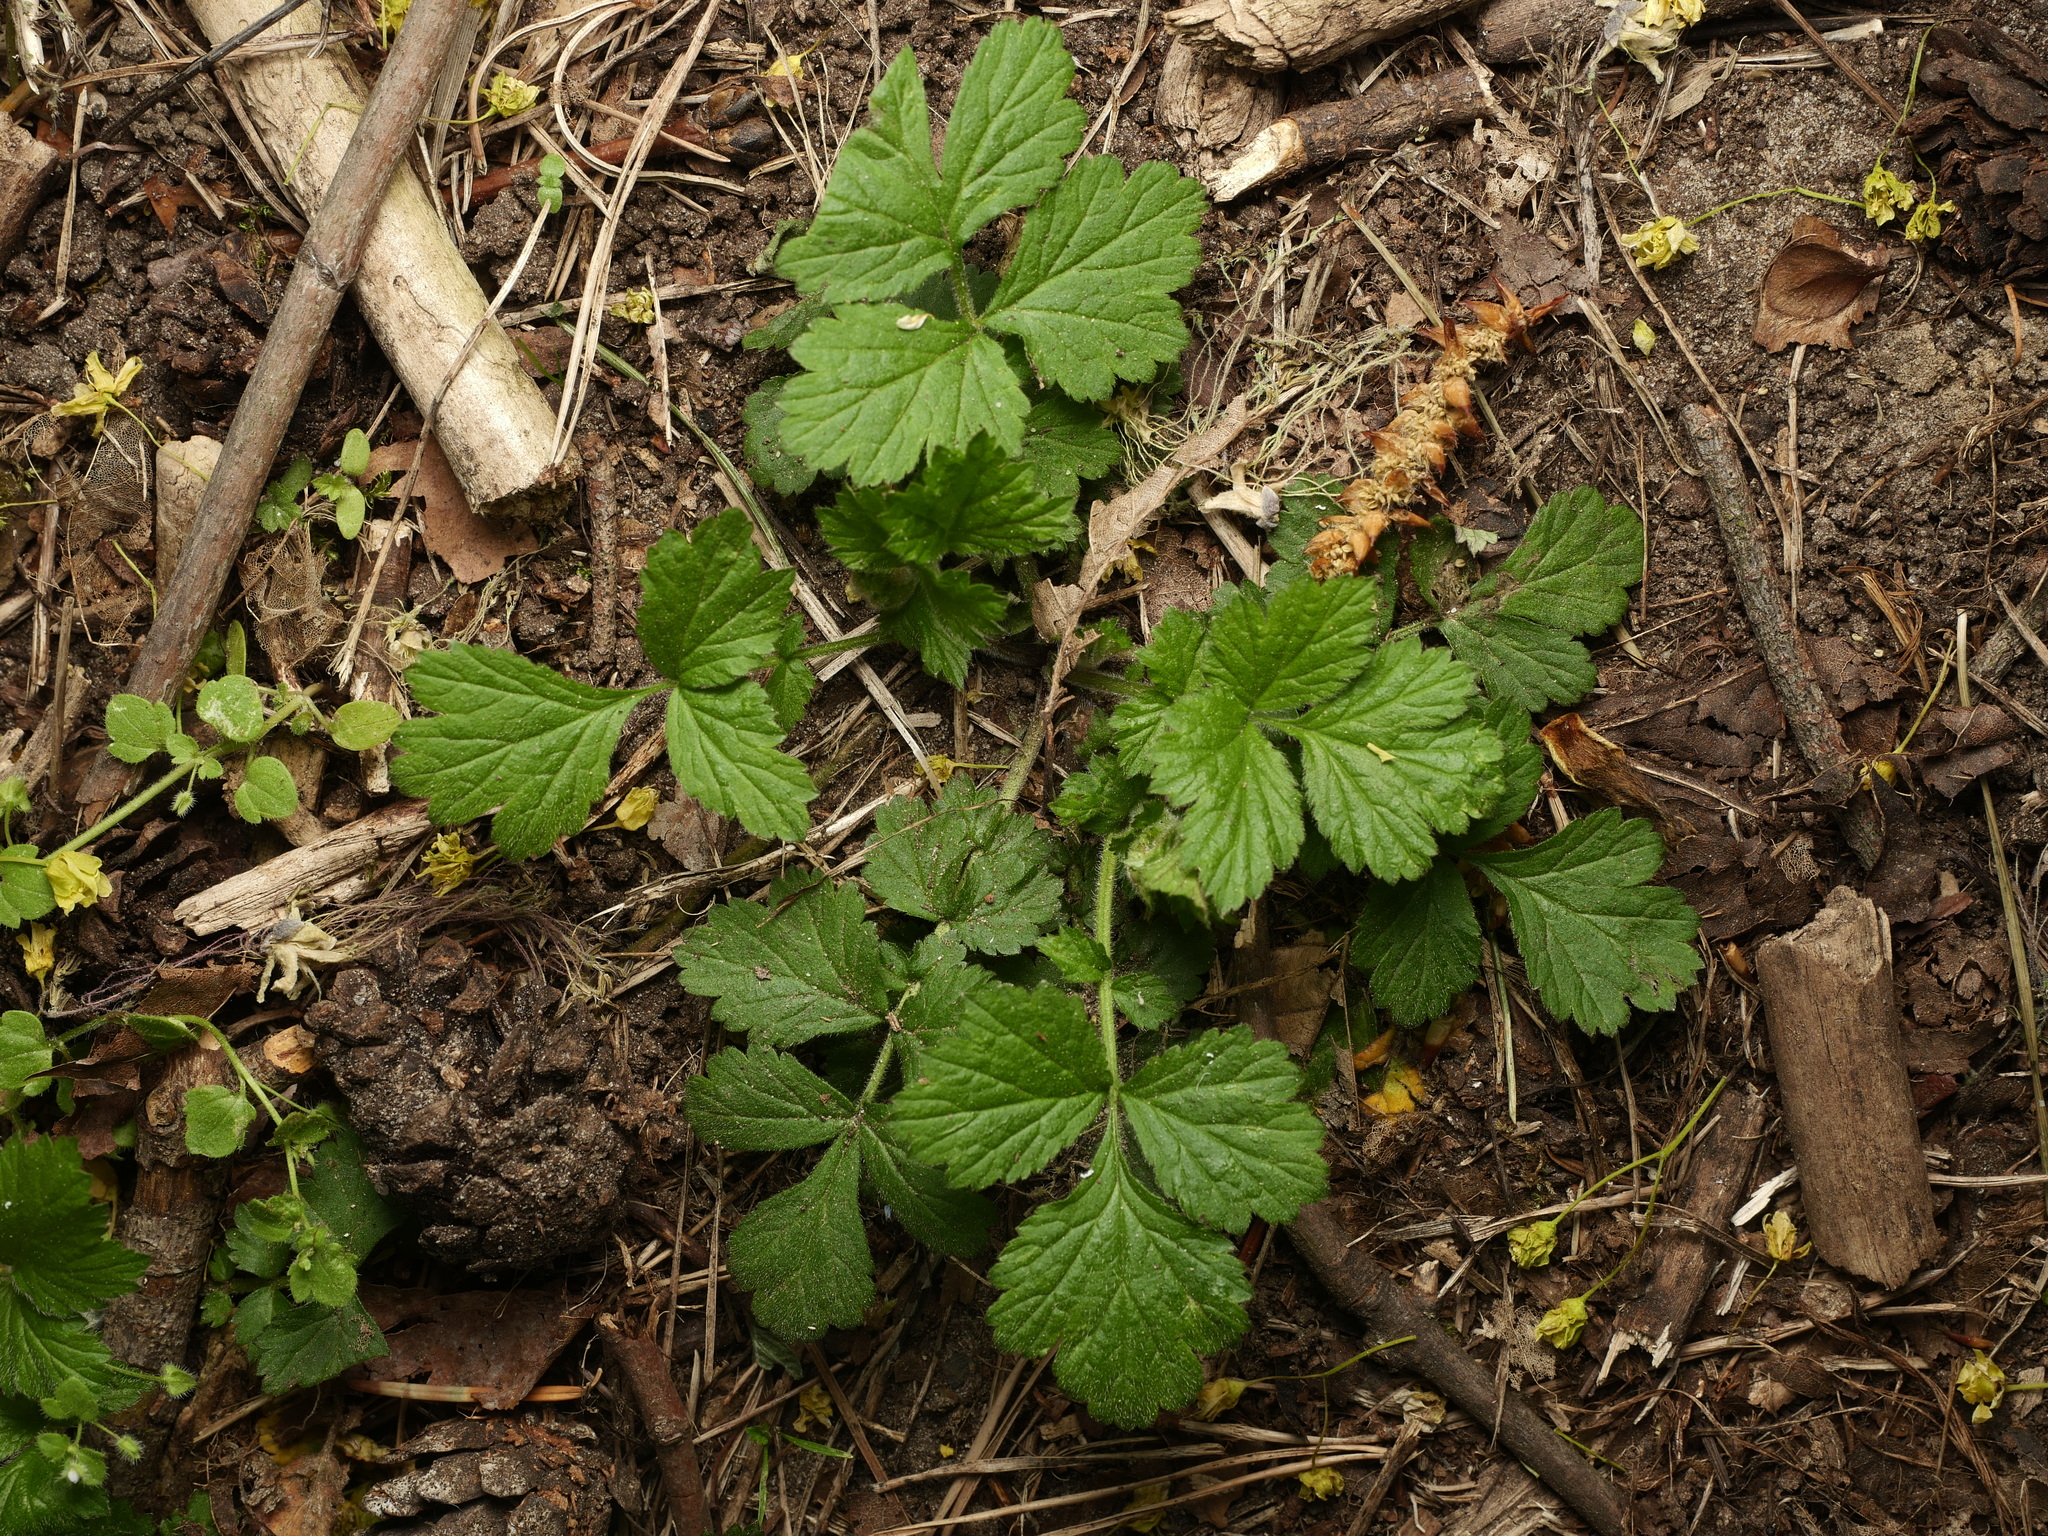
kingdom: Plantae
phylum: Tracheophyta
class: Magnoliopsida
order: Rosales
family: Rosaceae
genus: Geum
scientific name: Geum urbanum
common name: Wood avens
